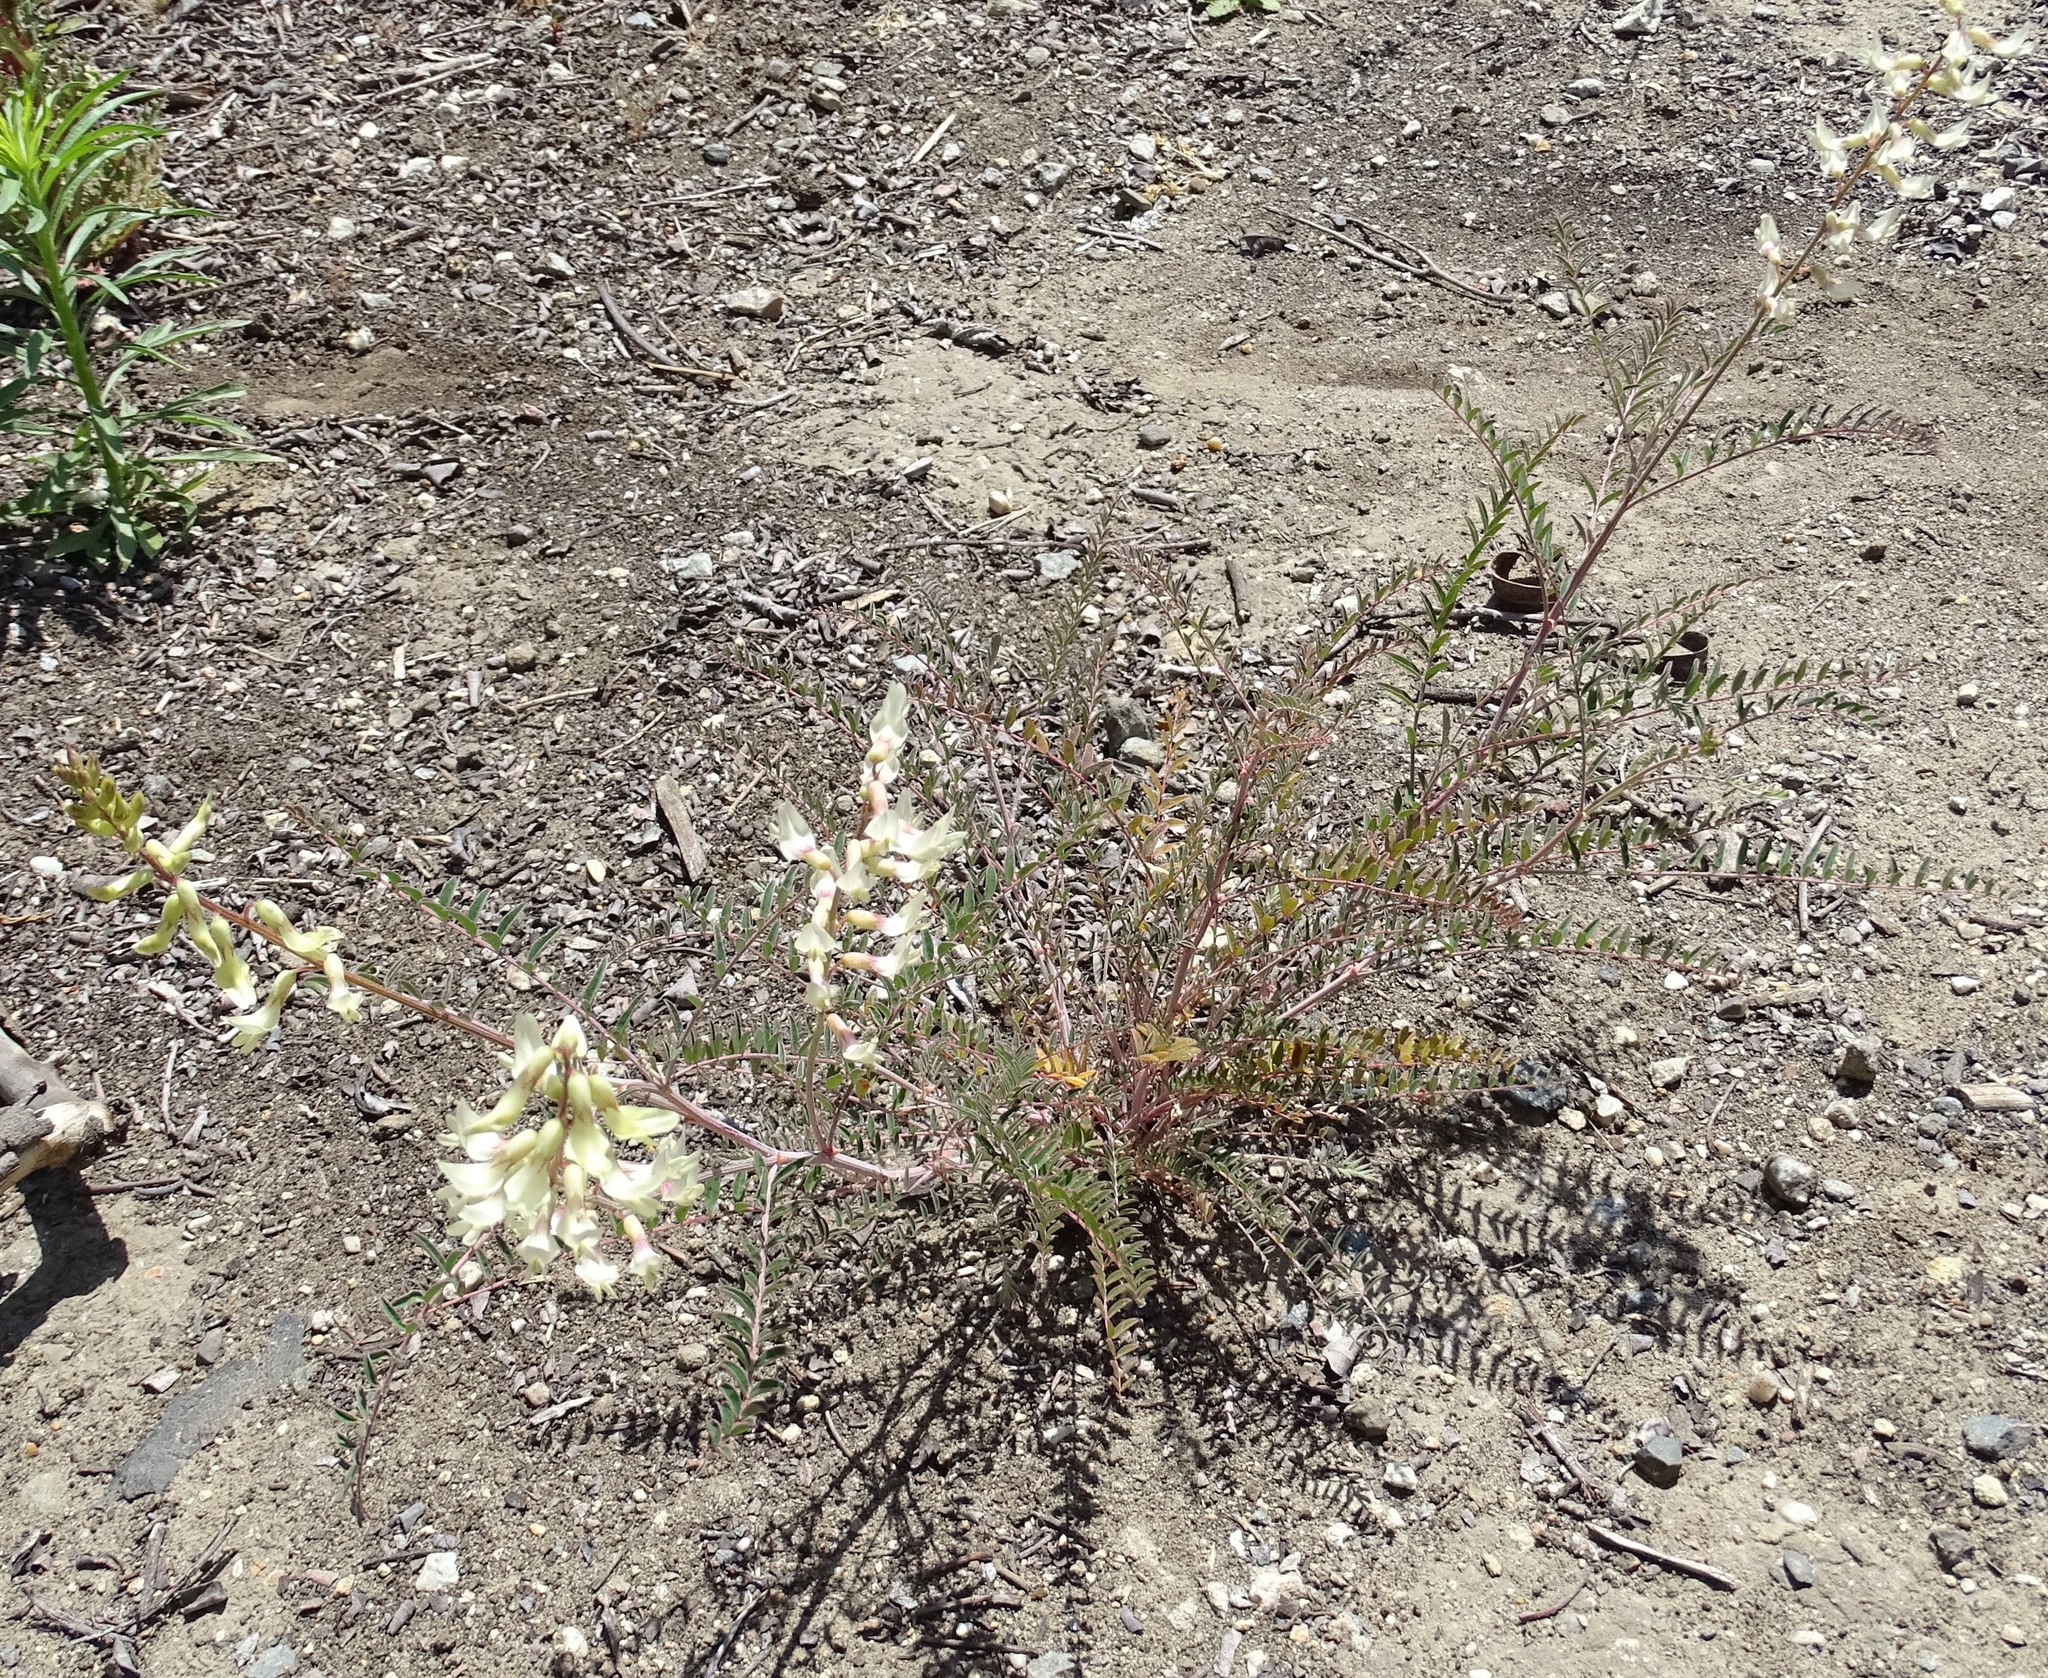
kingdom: Plantae
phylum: Tracheophyta
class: Magnoliopsida
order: Fabales
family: Fabaceae
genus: Astragalus
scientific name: Astragalus trichopodus
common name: Santa barbara milk-vetch
